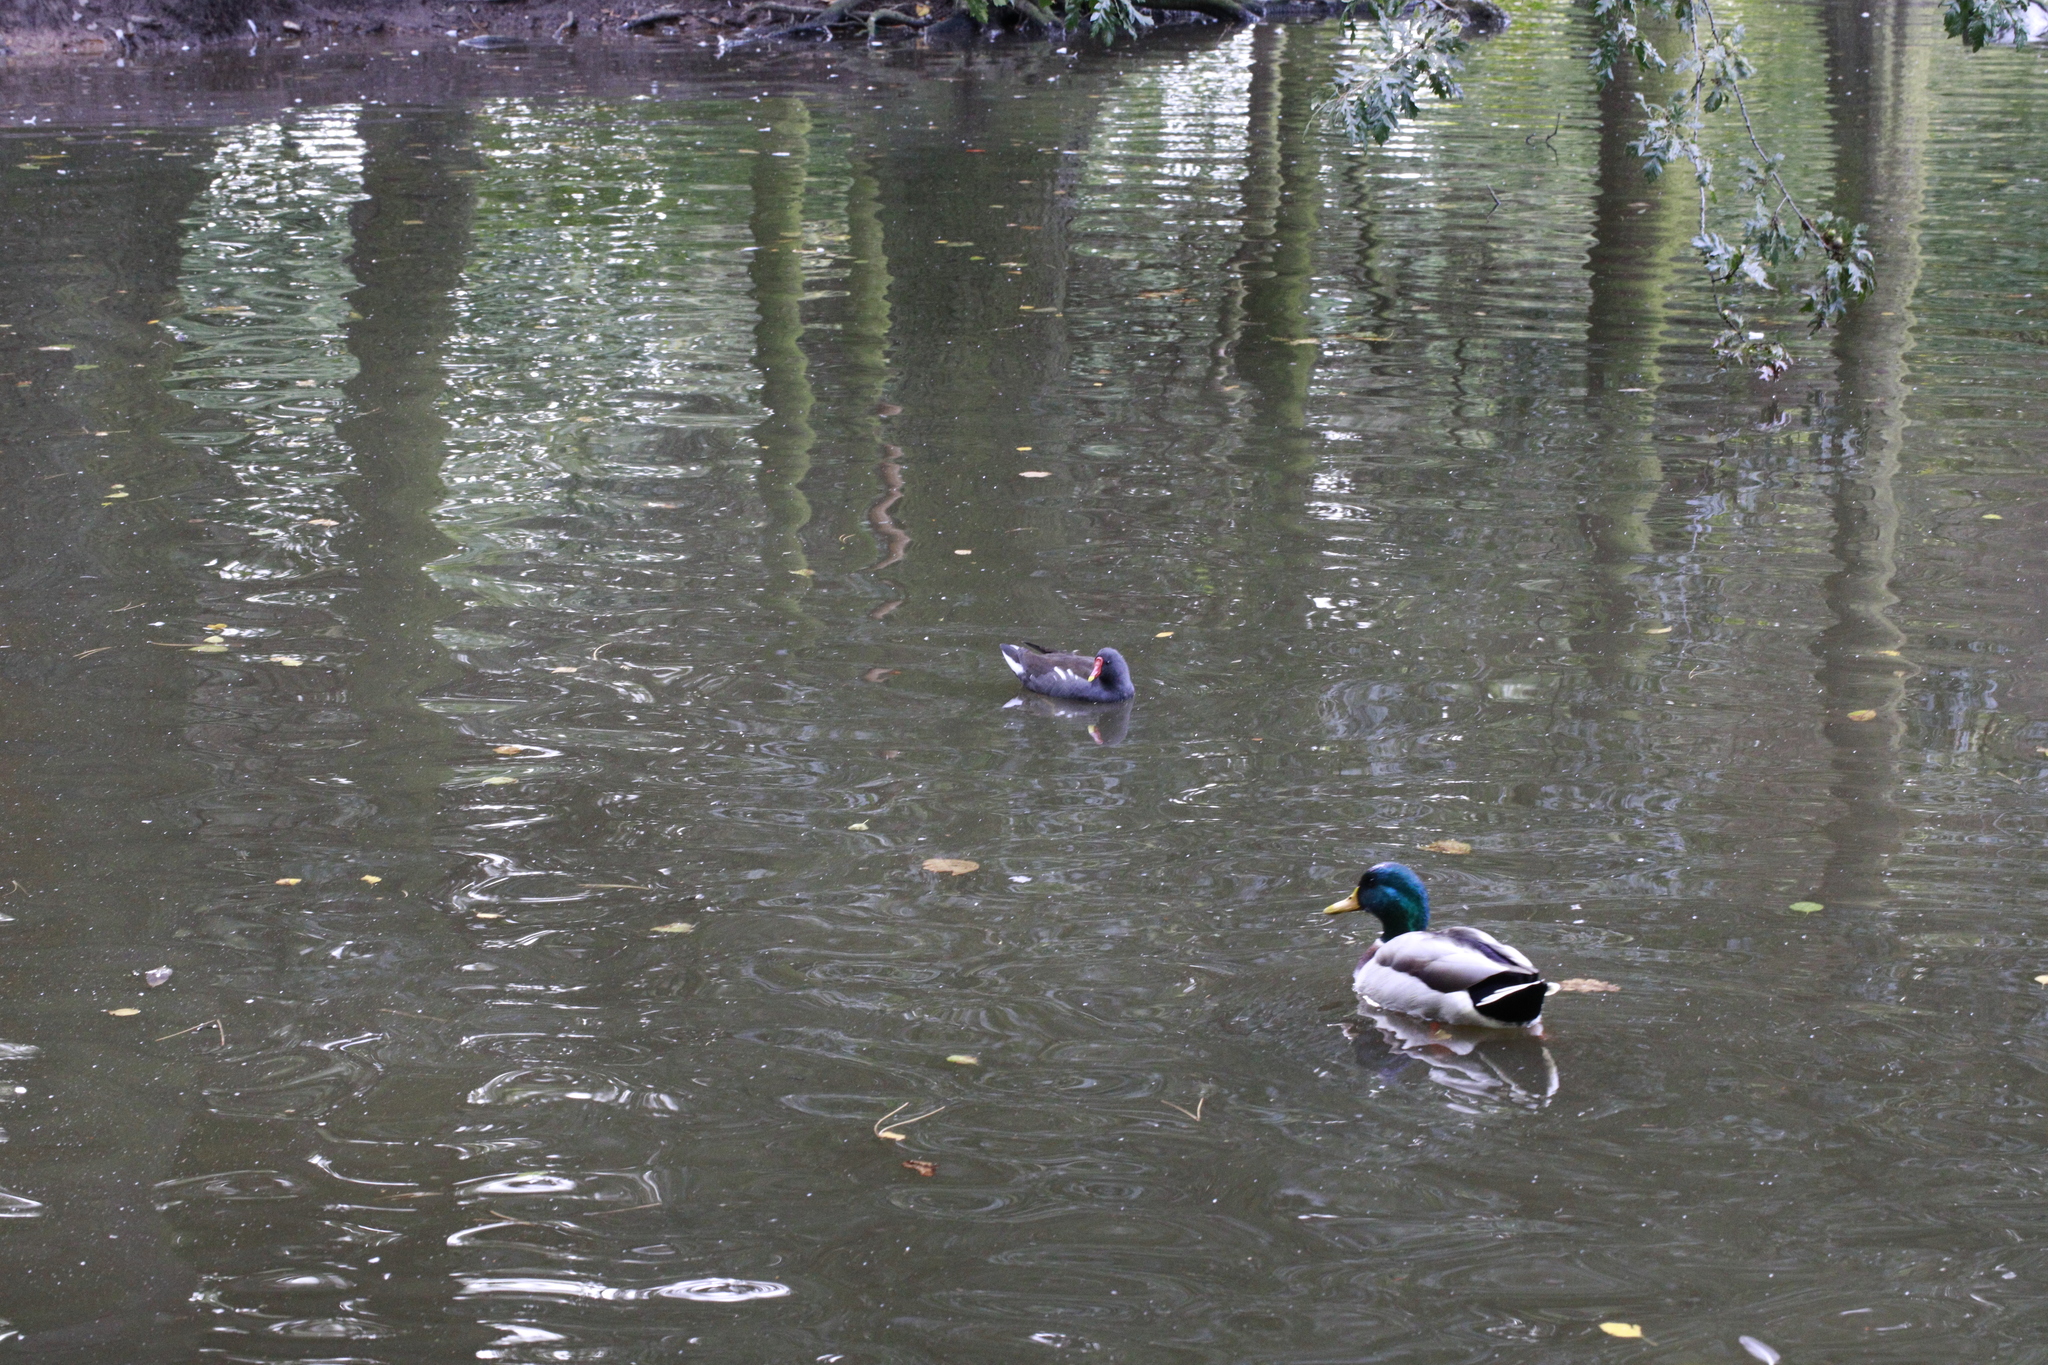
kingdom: Animalia
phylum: Chordata
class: Aves
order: Gruiformes
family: Rallidae
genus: Gallinula
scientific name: Gallinula chloropus
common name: Common moorhen
